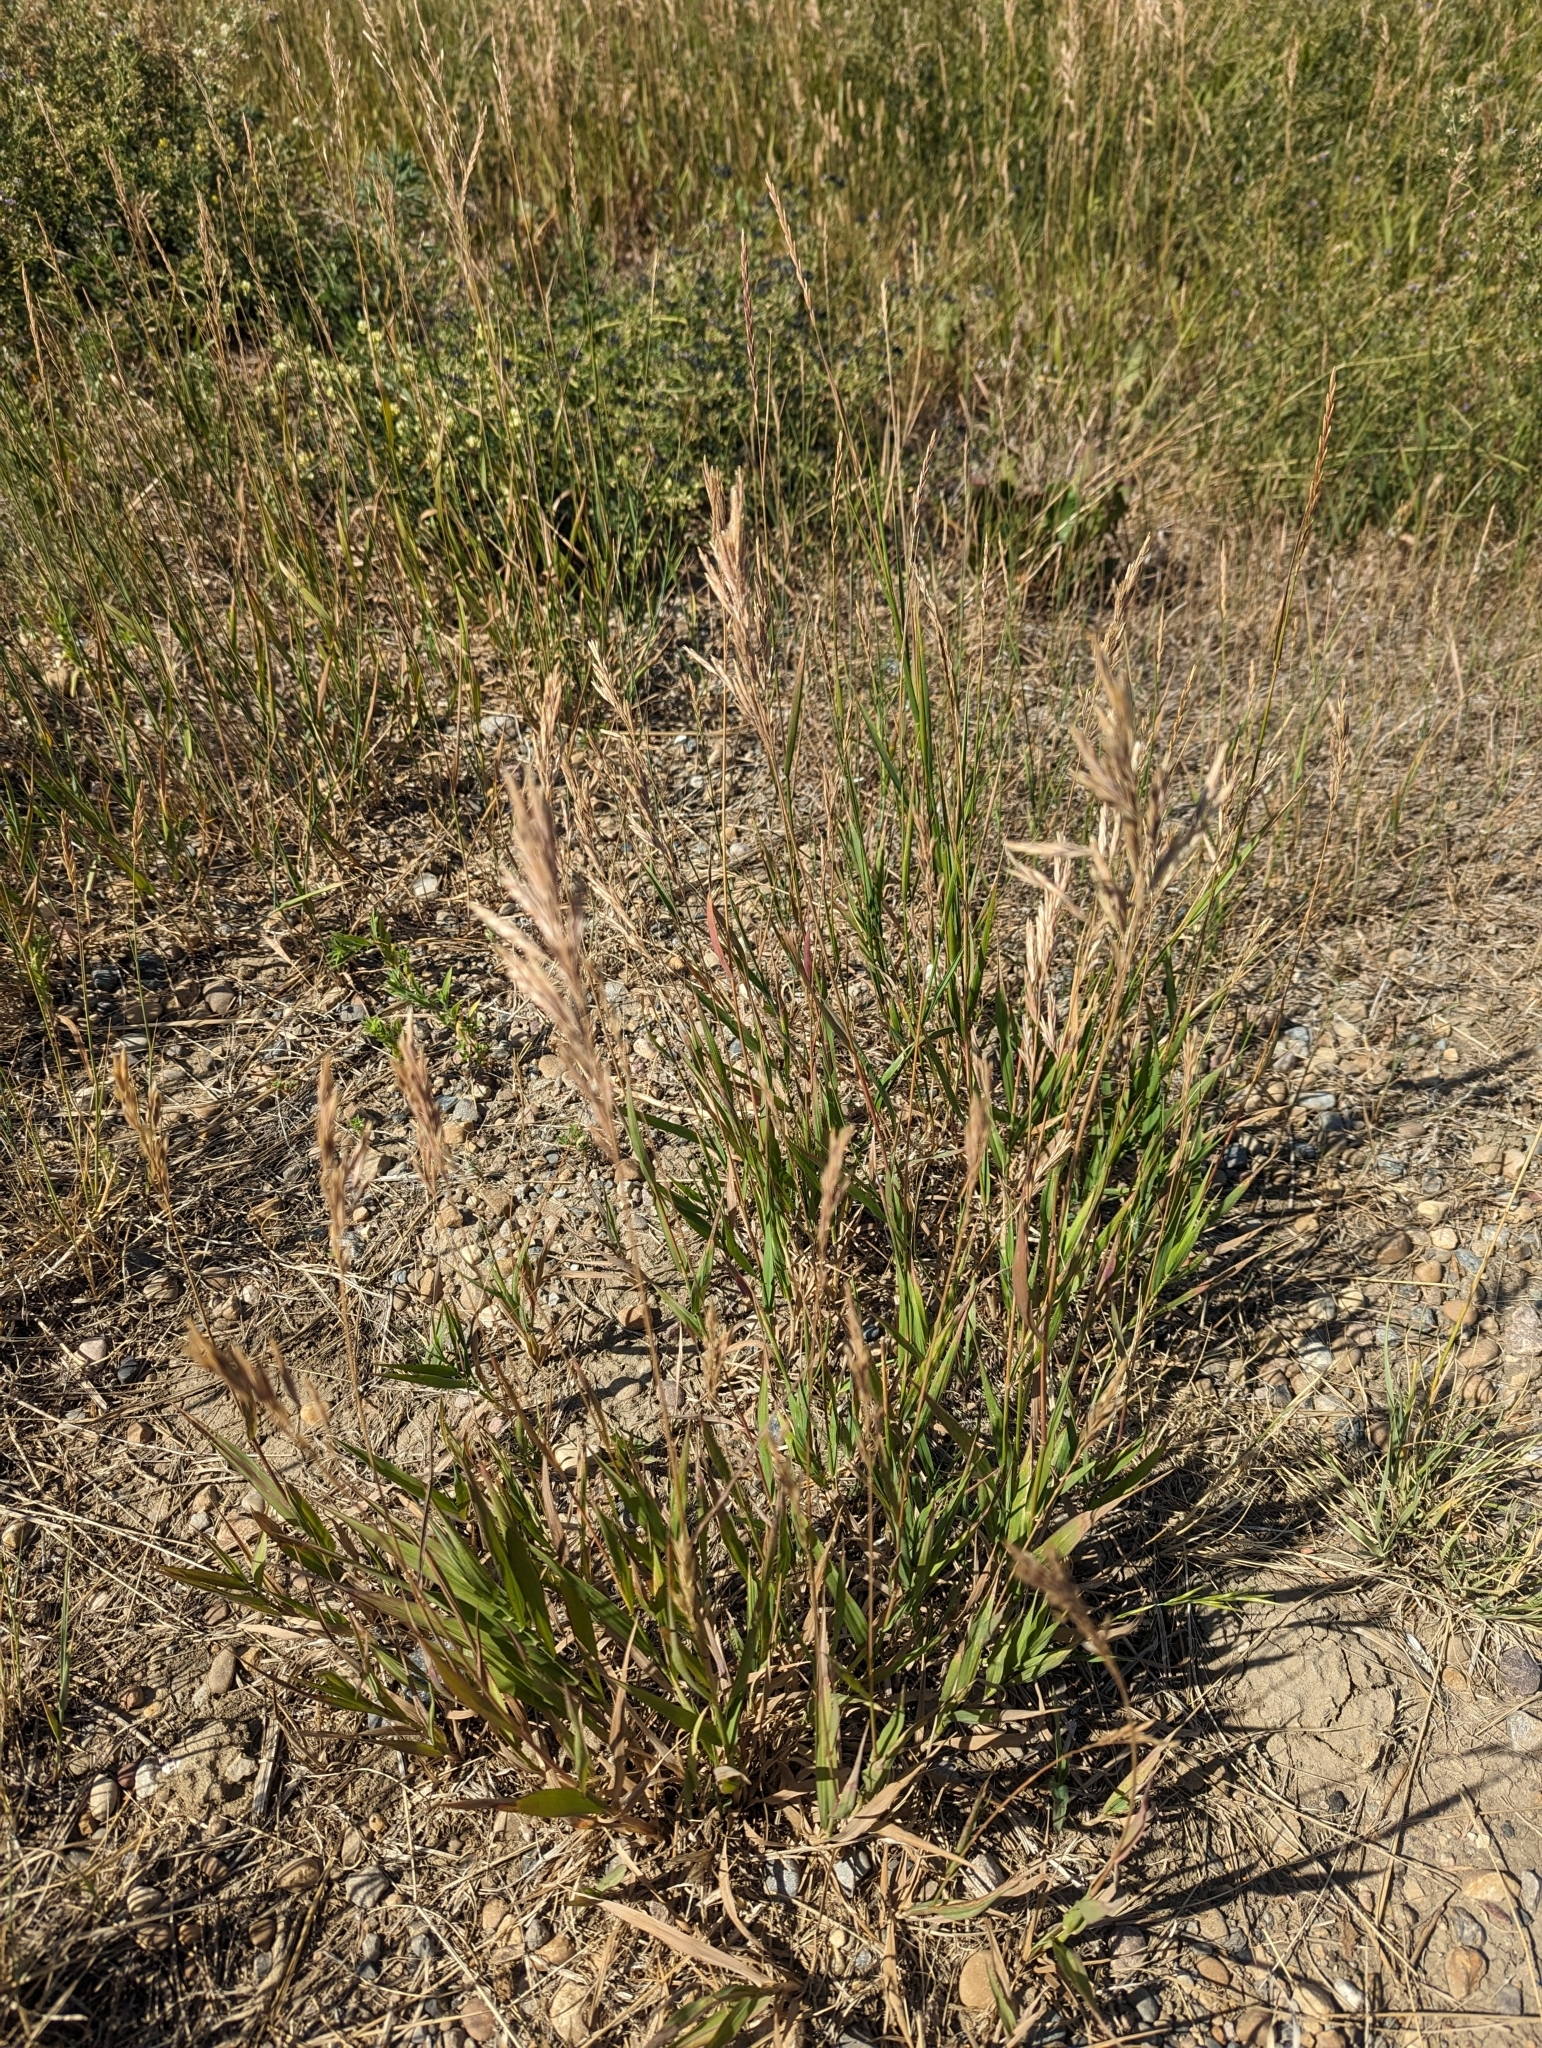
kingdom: Plantae
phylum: Tracheophyta
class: Liliopsida
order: Poales
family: Poaceae
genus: Bromus
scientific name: Bromus inermis
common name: Smooth brome
